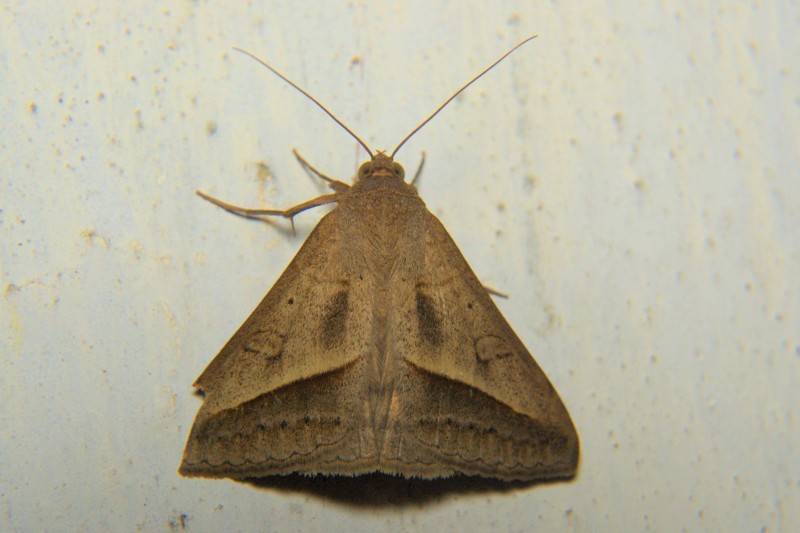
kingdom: Animalia
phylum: Arthropoda
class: Insecta
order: Lepidoptera
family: Erebidae
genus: Mocis
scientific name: Mocis frugalis
